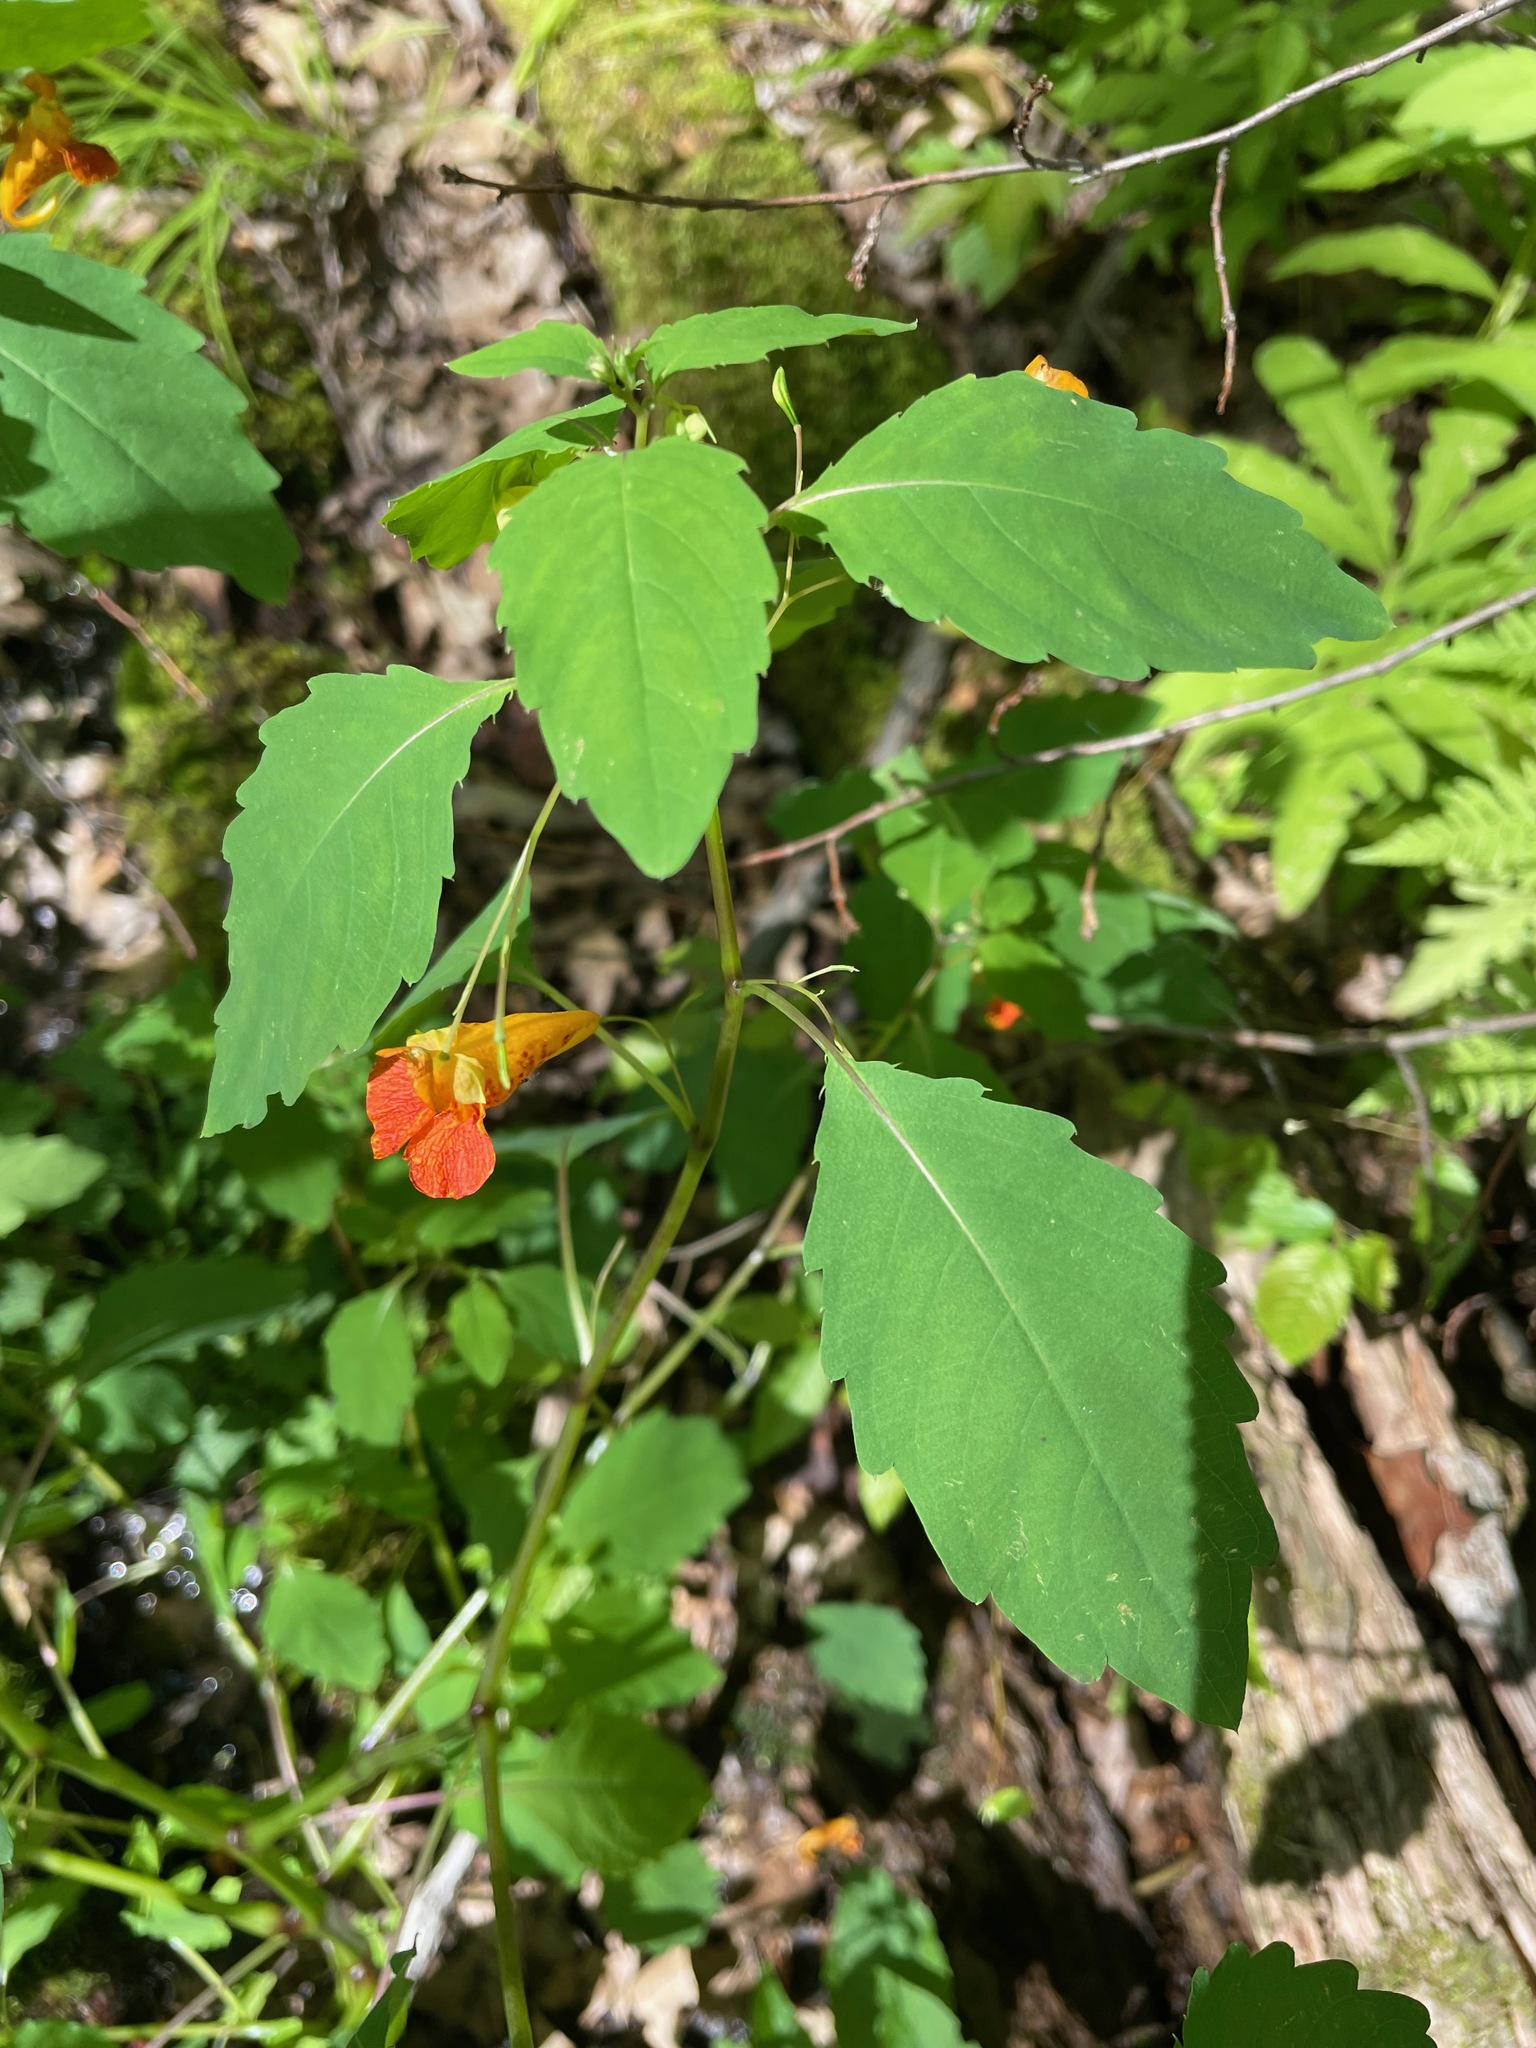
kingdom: Plantae
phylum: Tracheophyta
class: Magnoliopsida
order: Ericales
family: Balsaminaceae
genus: Impatiens
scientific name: Impatiens capensis
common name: Orange balsam
